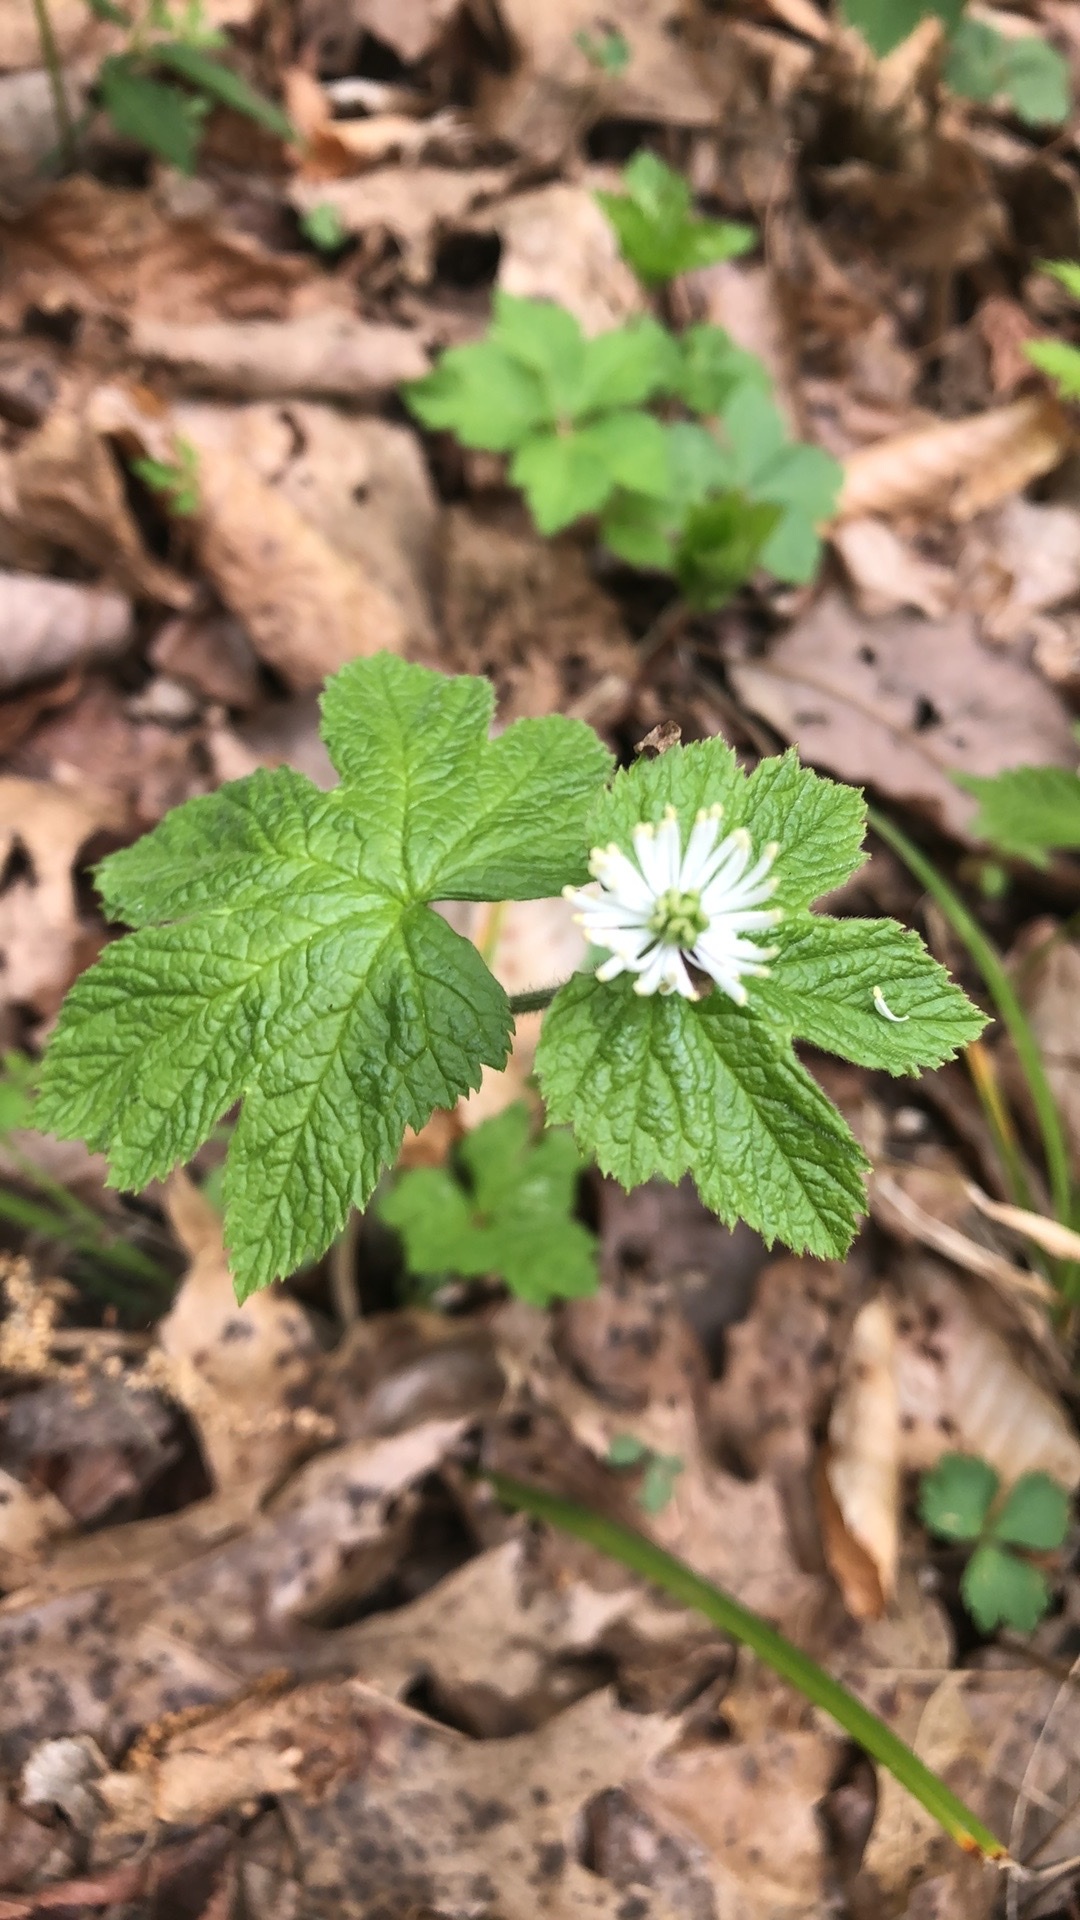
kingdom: Plantae
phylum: Tracheophyta
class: Magnoliopsida
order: Ranunculales
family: Ranunculaceae
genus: Hydrastis
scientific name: Hydrastis canadensis
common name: Goldenseal
